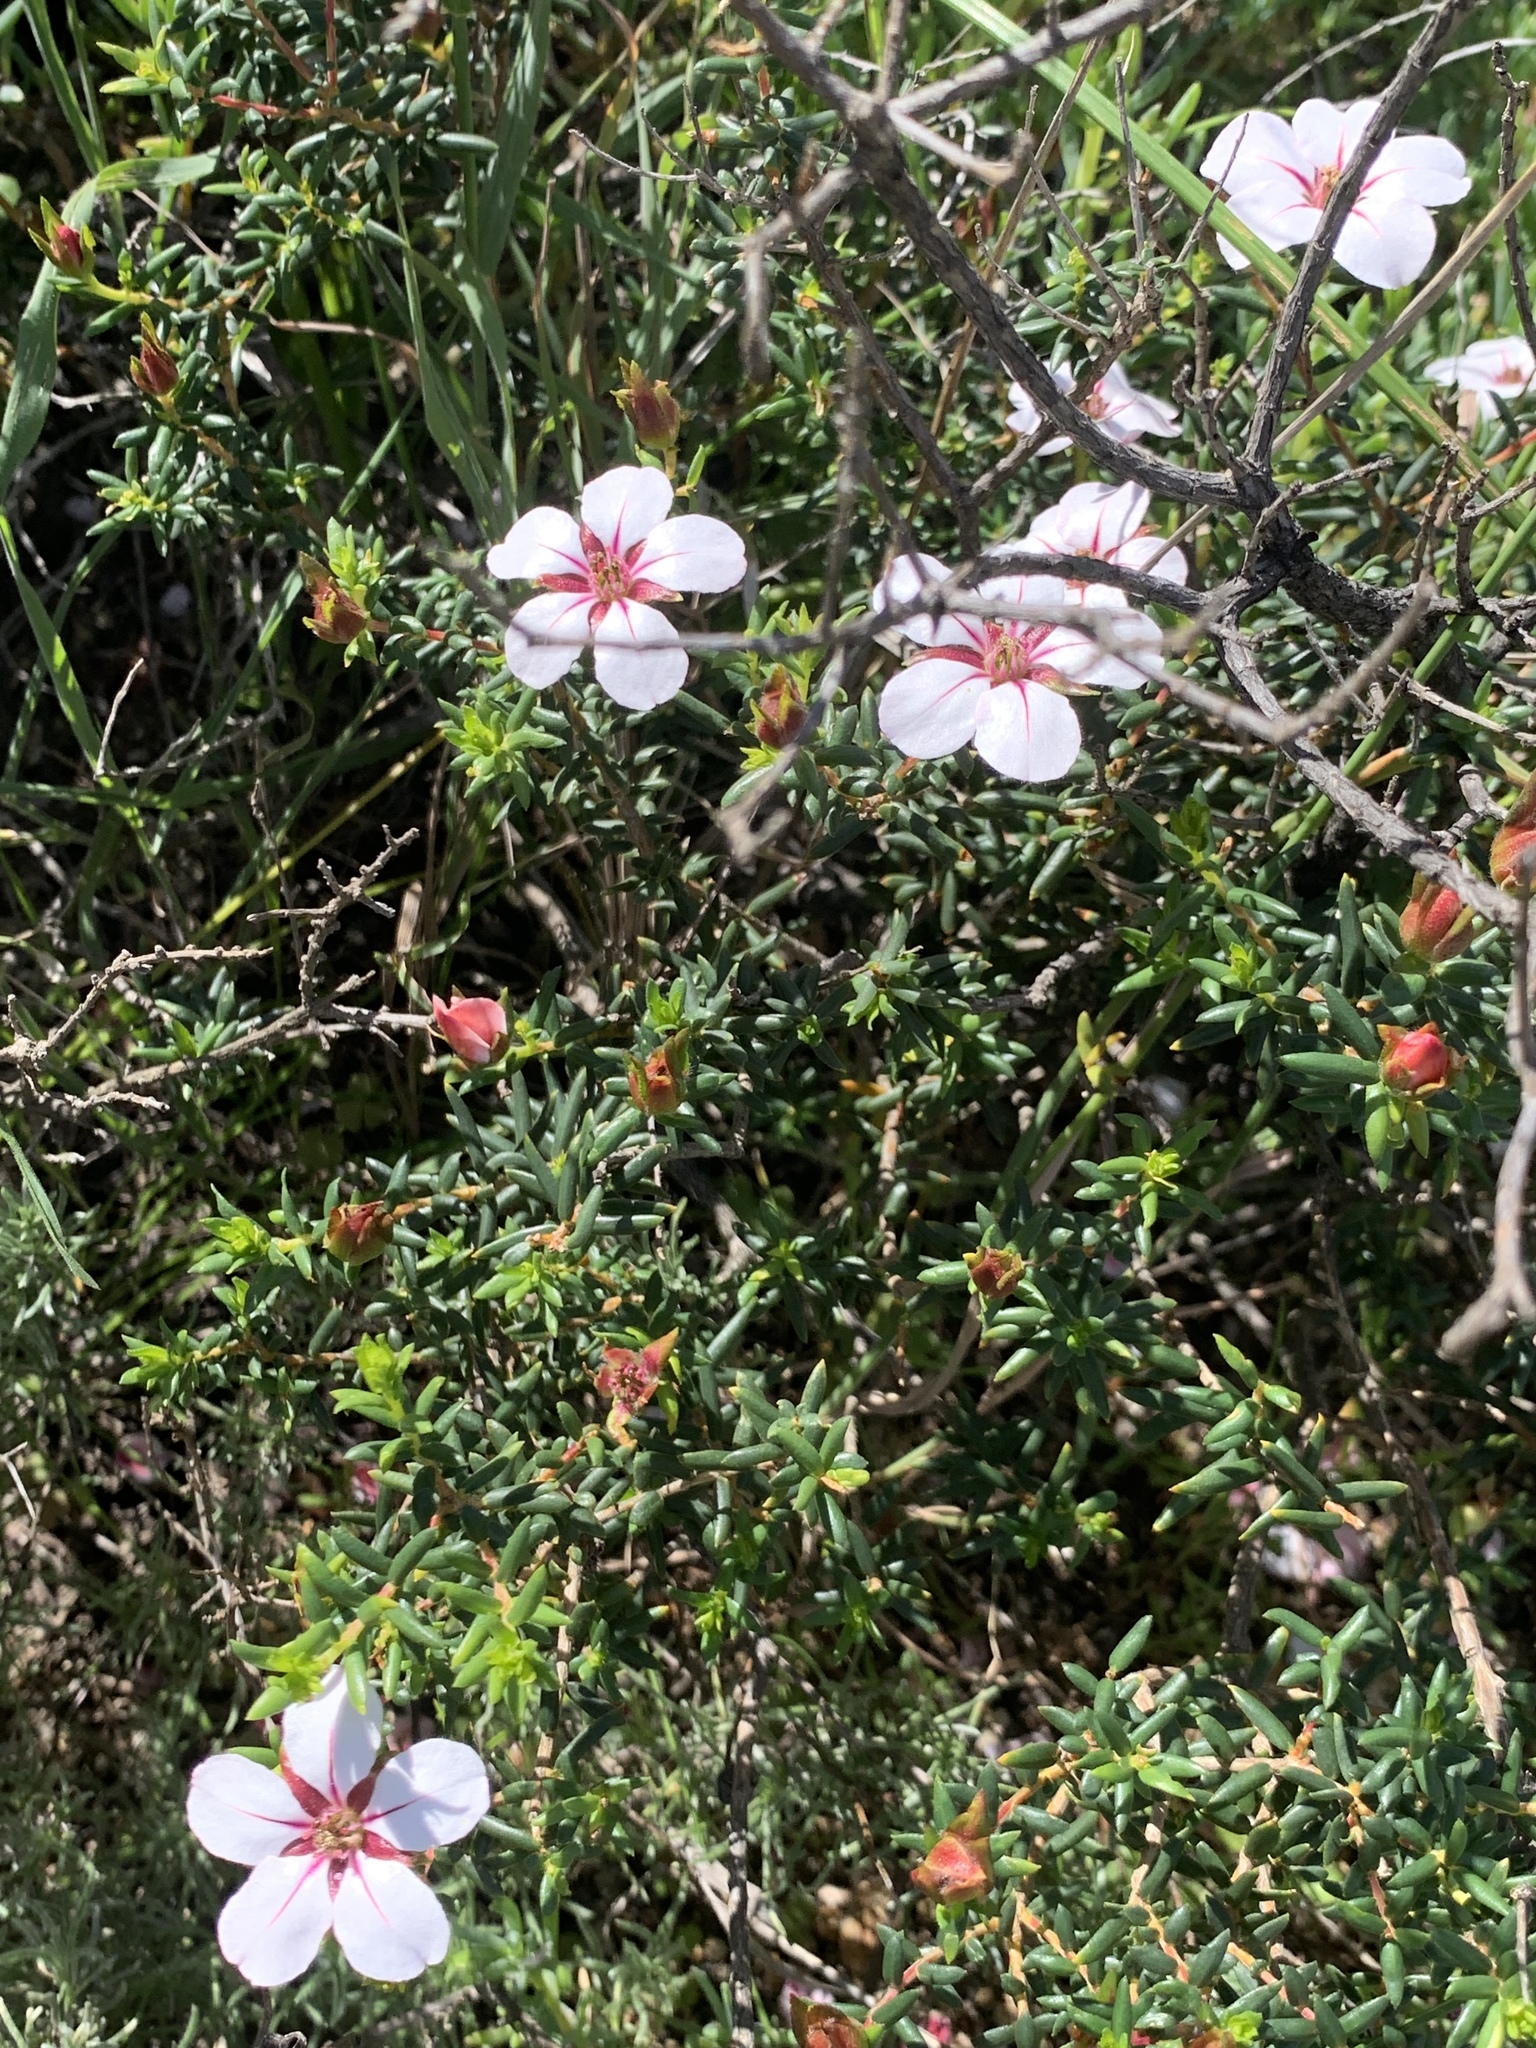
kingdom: Plantae
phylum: Tracheophyta
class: Magnoliopsida
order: Sapindales
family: Rutaceae
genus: Adenandra
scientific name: Adenandra uniflora
